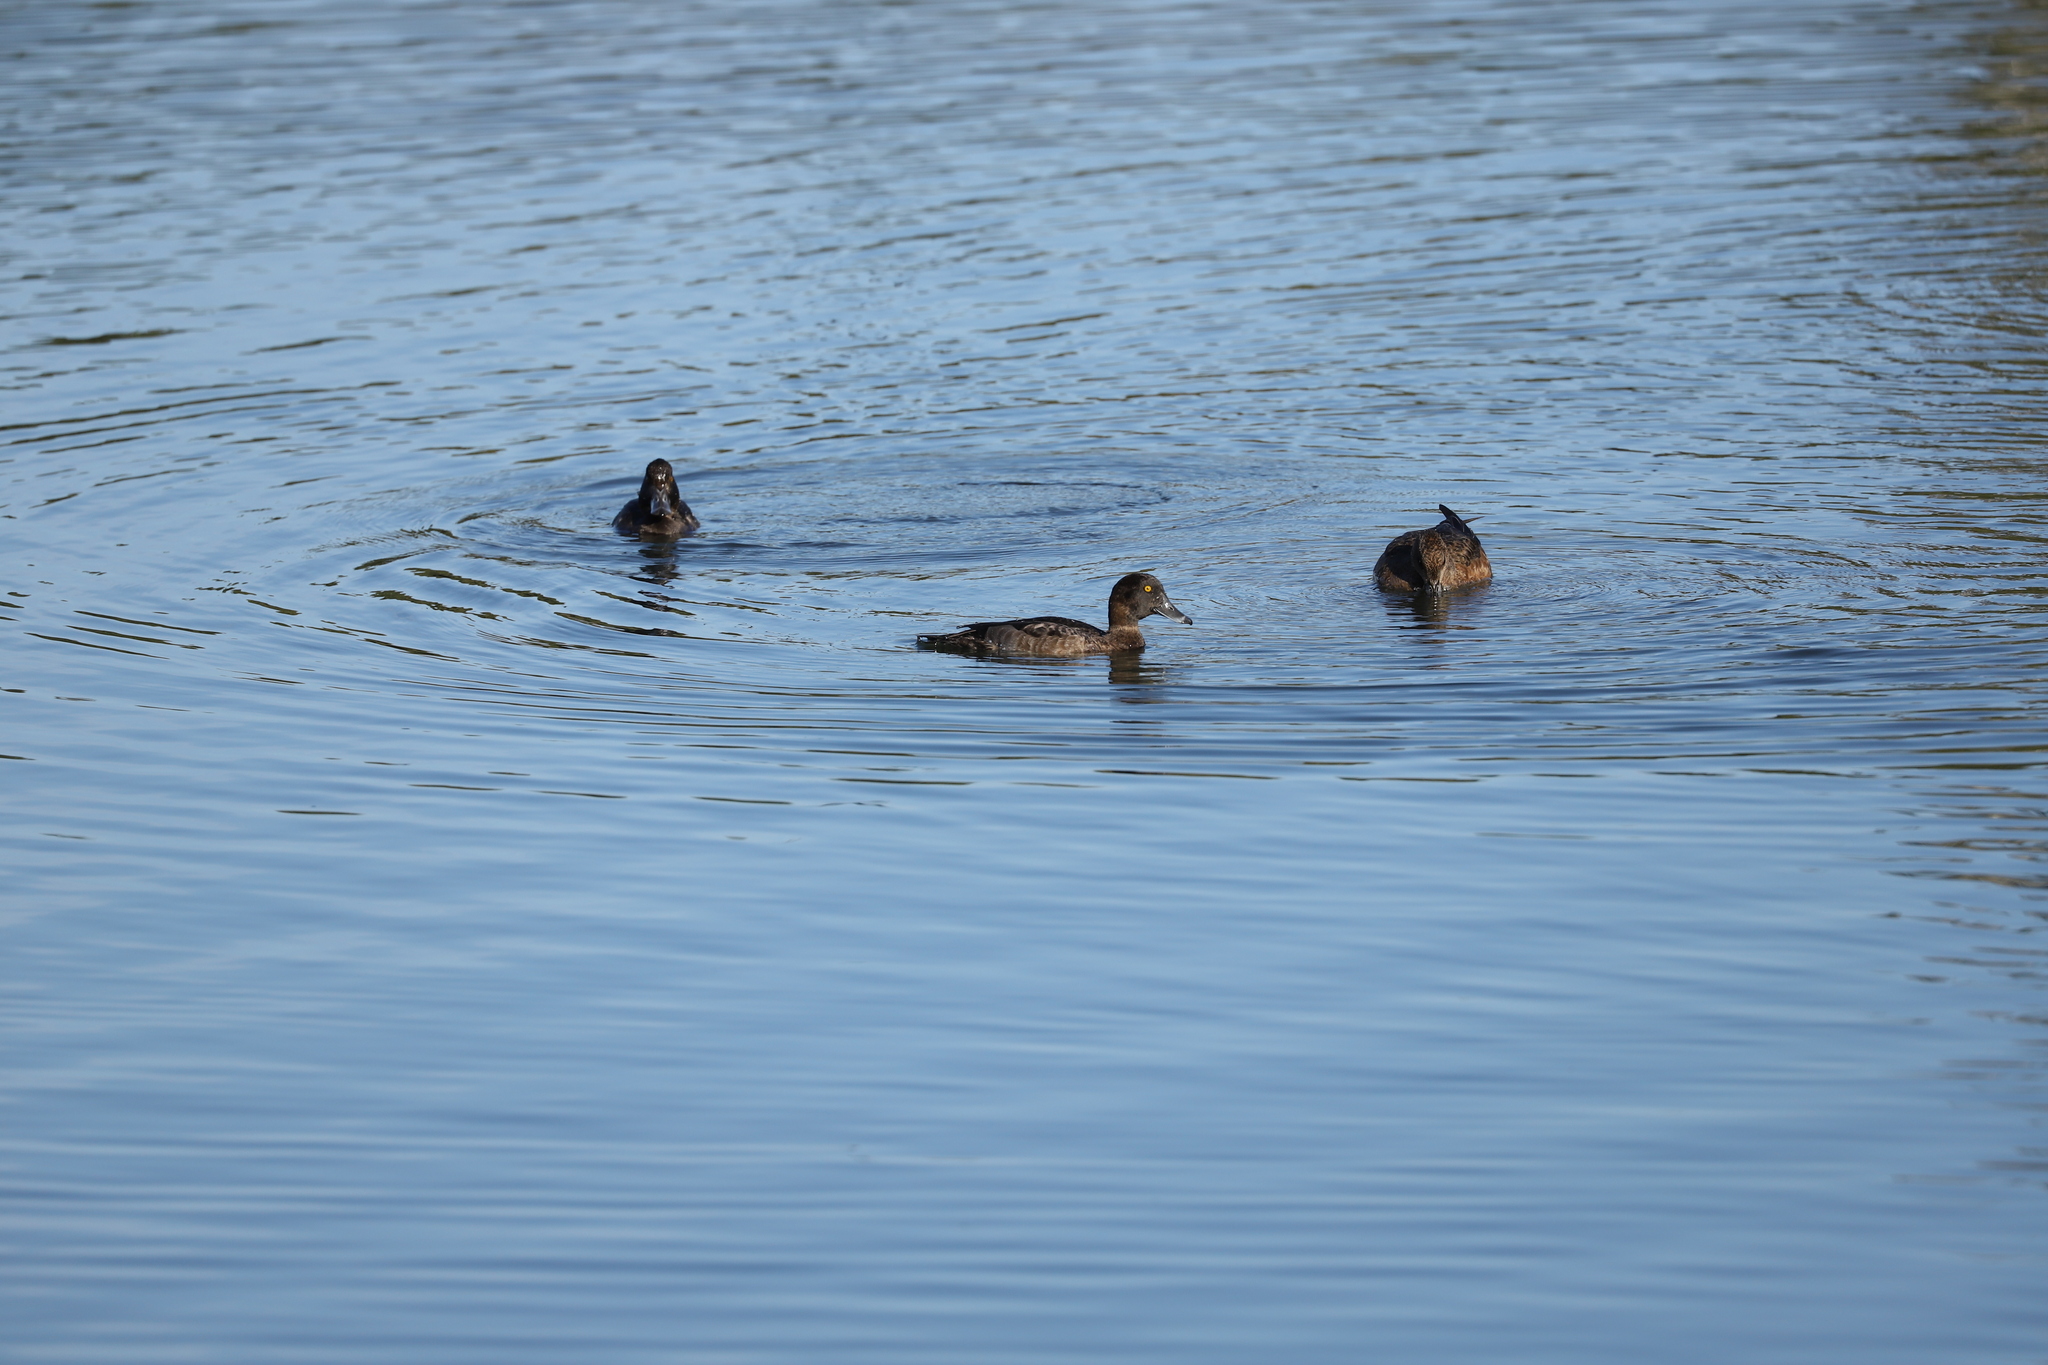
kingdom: Animalia
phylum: Chordata
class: Aves
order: Anseriformes
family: Anatidae
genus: Aythya
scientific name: Aythya fuligula
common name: Tufted duck
